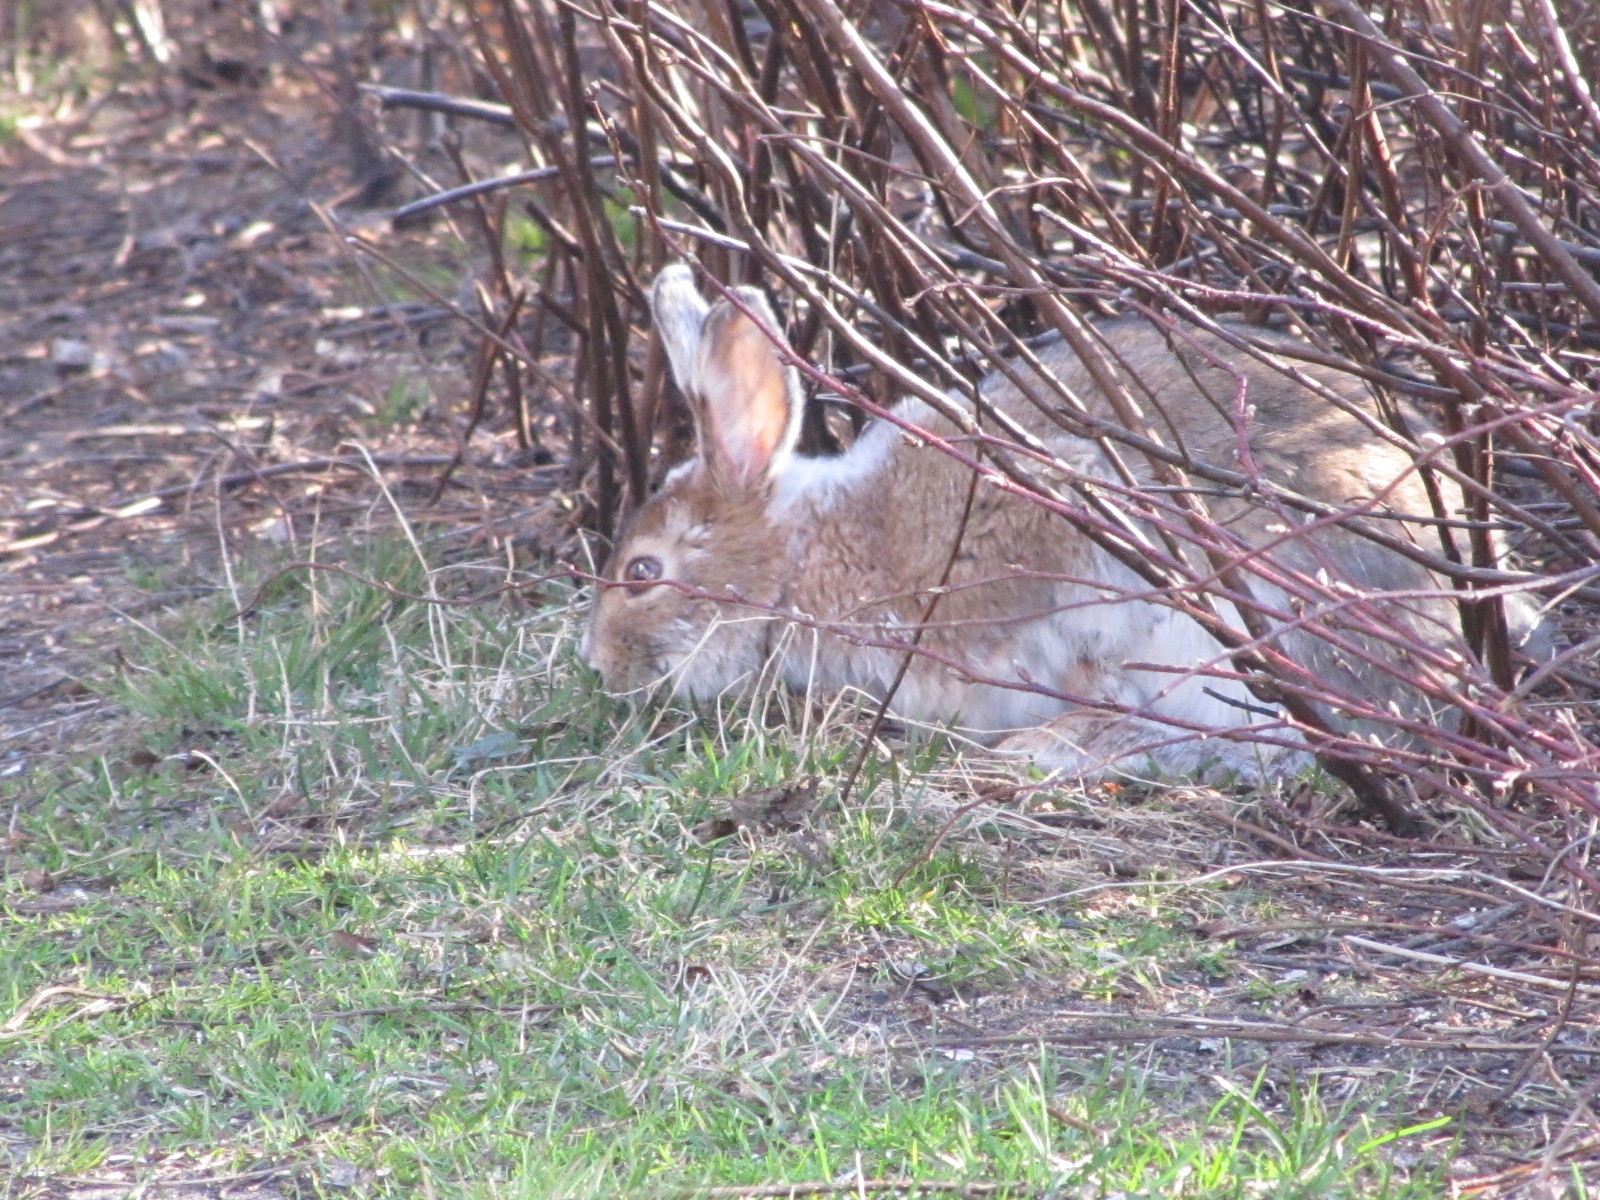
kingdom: Animalia
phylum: Chordata
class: Mammalia
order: Lagomorpha
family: Leporidae
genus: Lepus
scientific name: Lepus americanus
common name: Snowshoe hare
